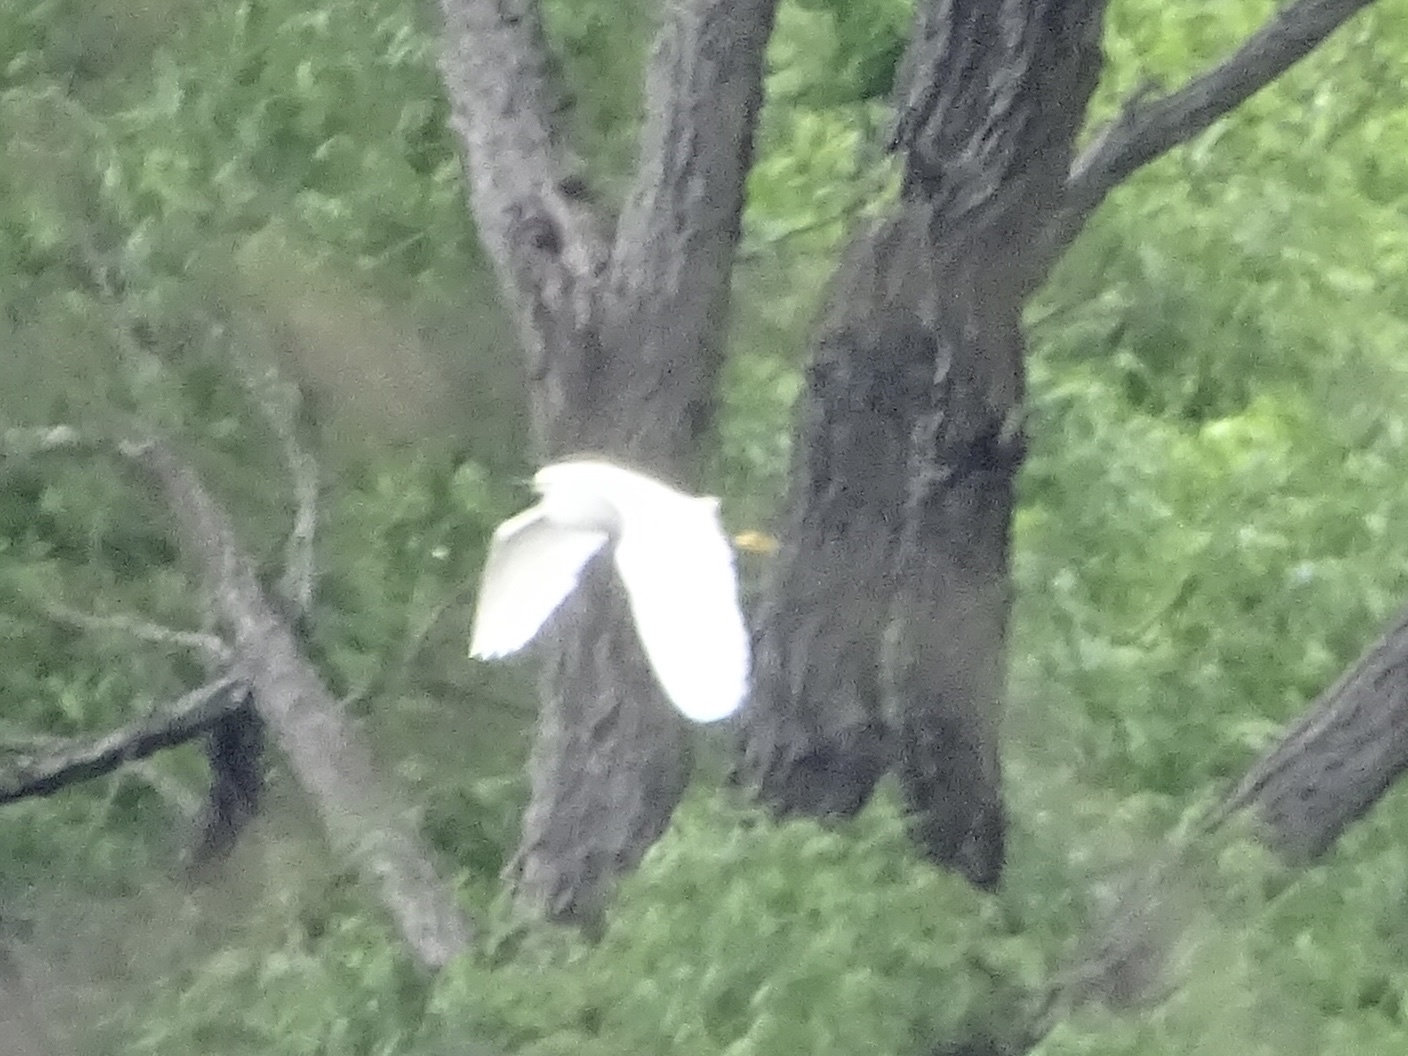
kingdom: Animalia
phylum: Chordata
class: Aves
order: Pelecaniformes
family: Ardeidae
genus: Egretta
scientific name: Egretta thula
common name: Snowy egret
